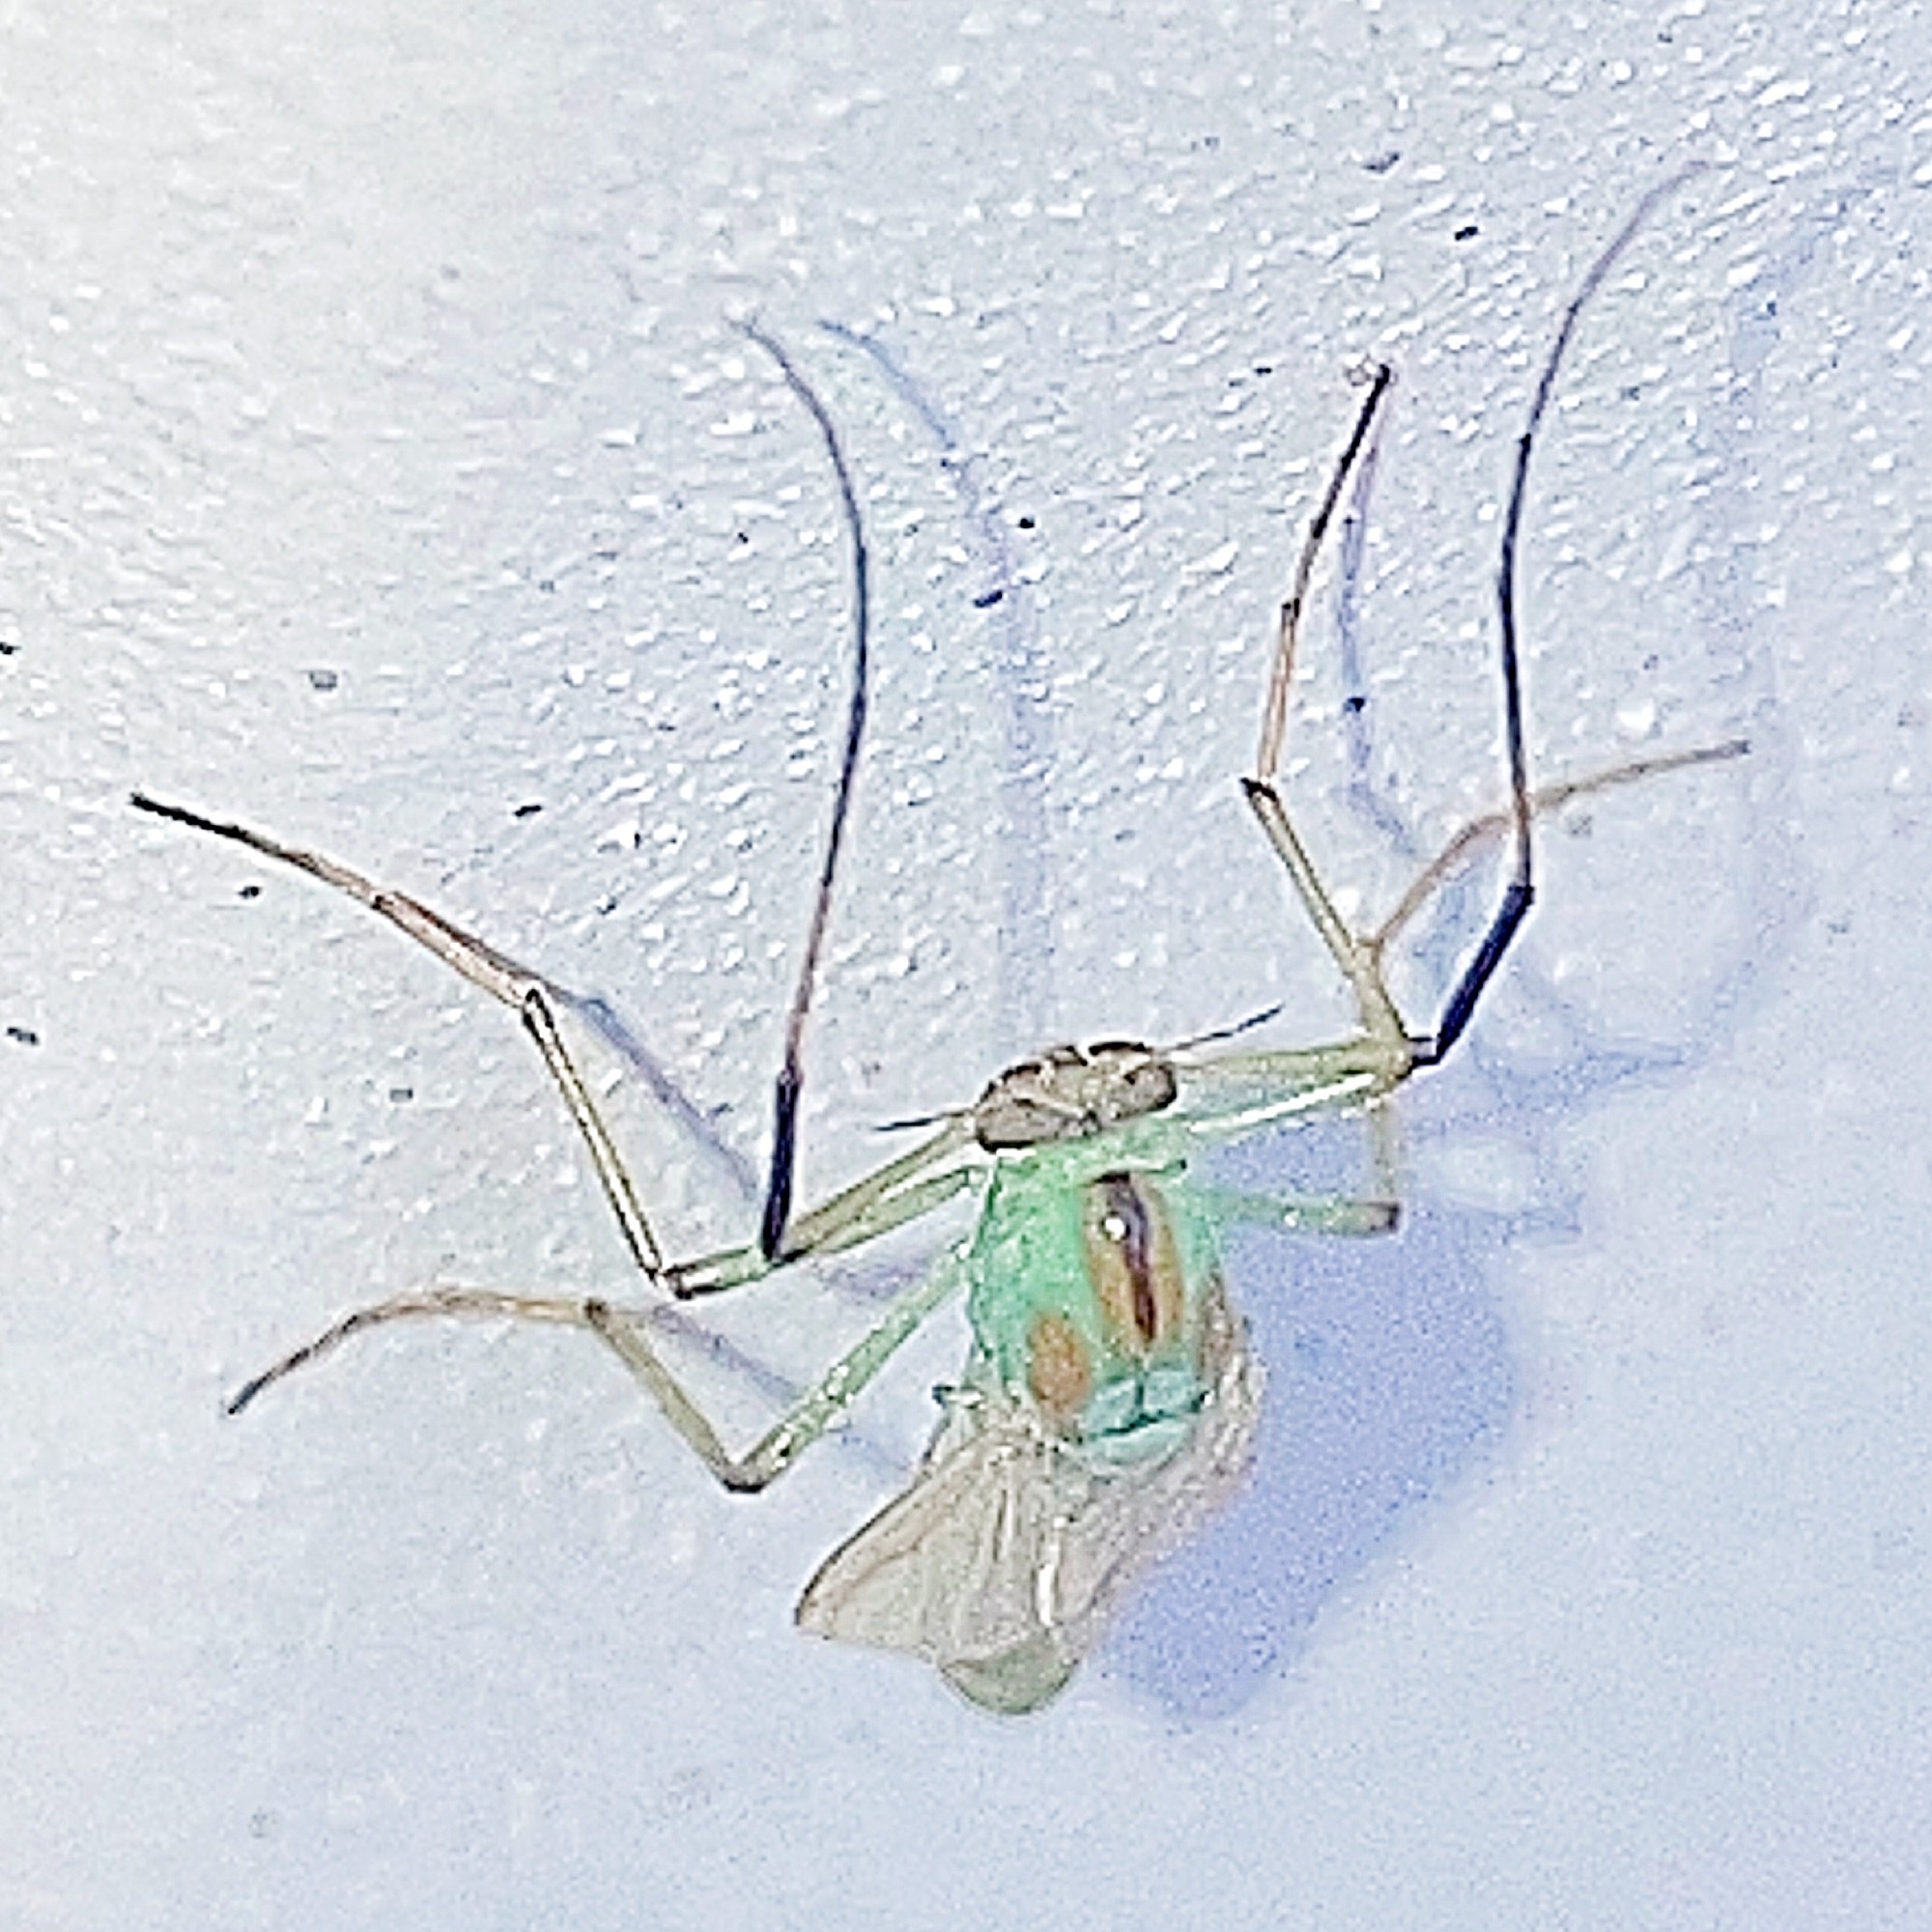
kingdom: Animalia
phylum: Arthropoda
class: Insecta
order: Diptera
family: Chironomidae
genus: Axarus
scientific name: Axarus
